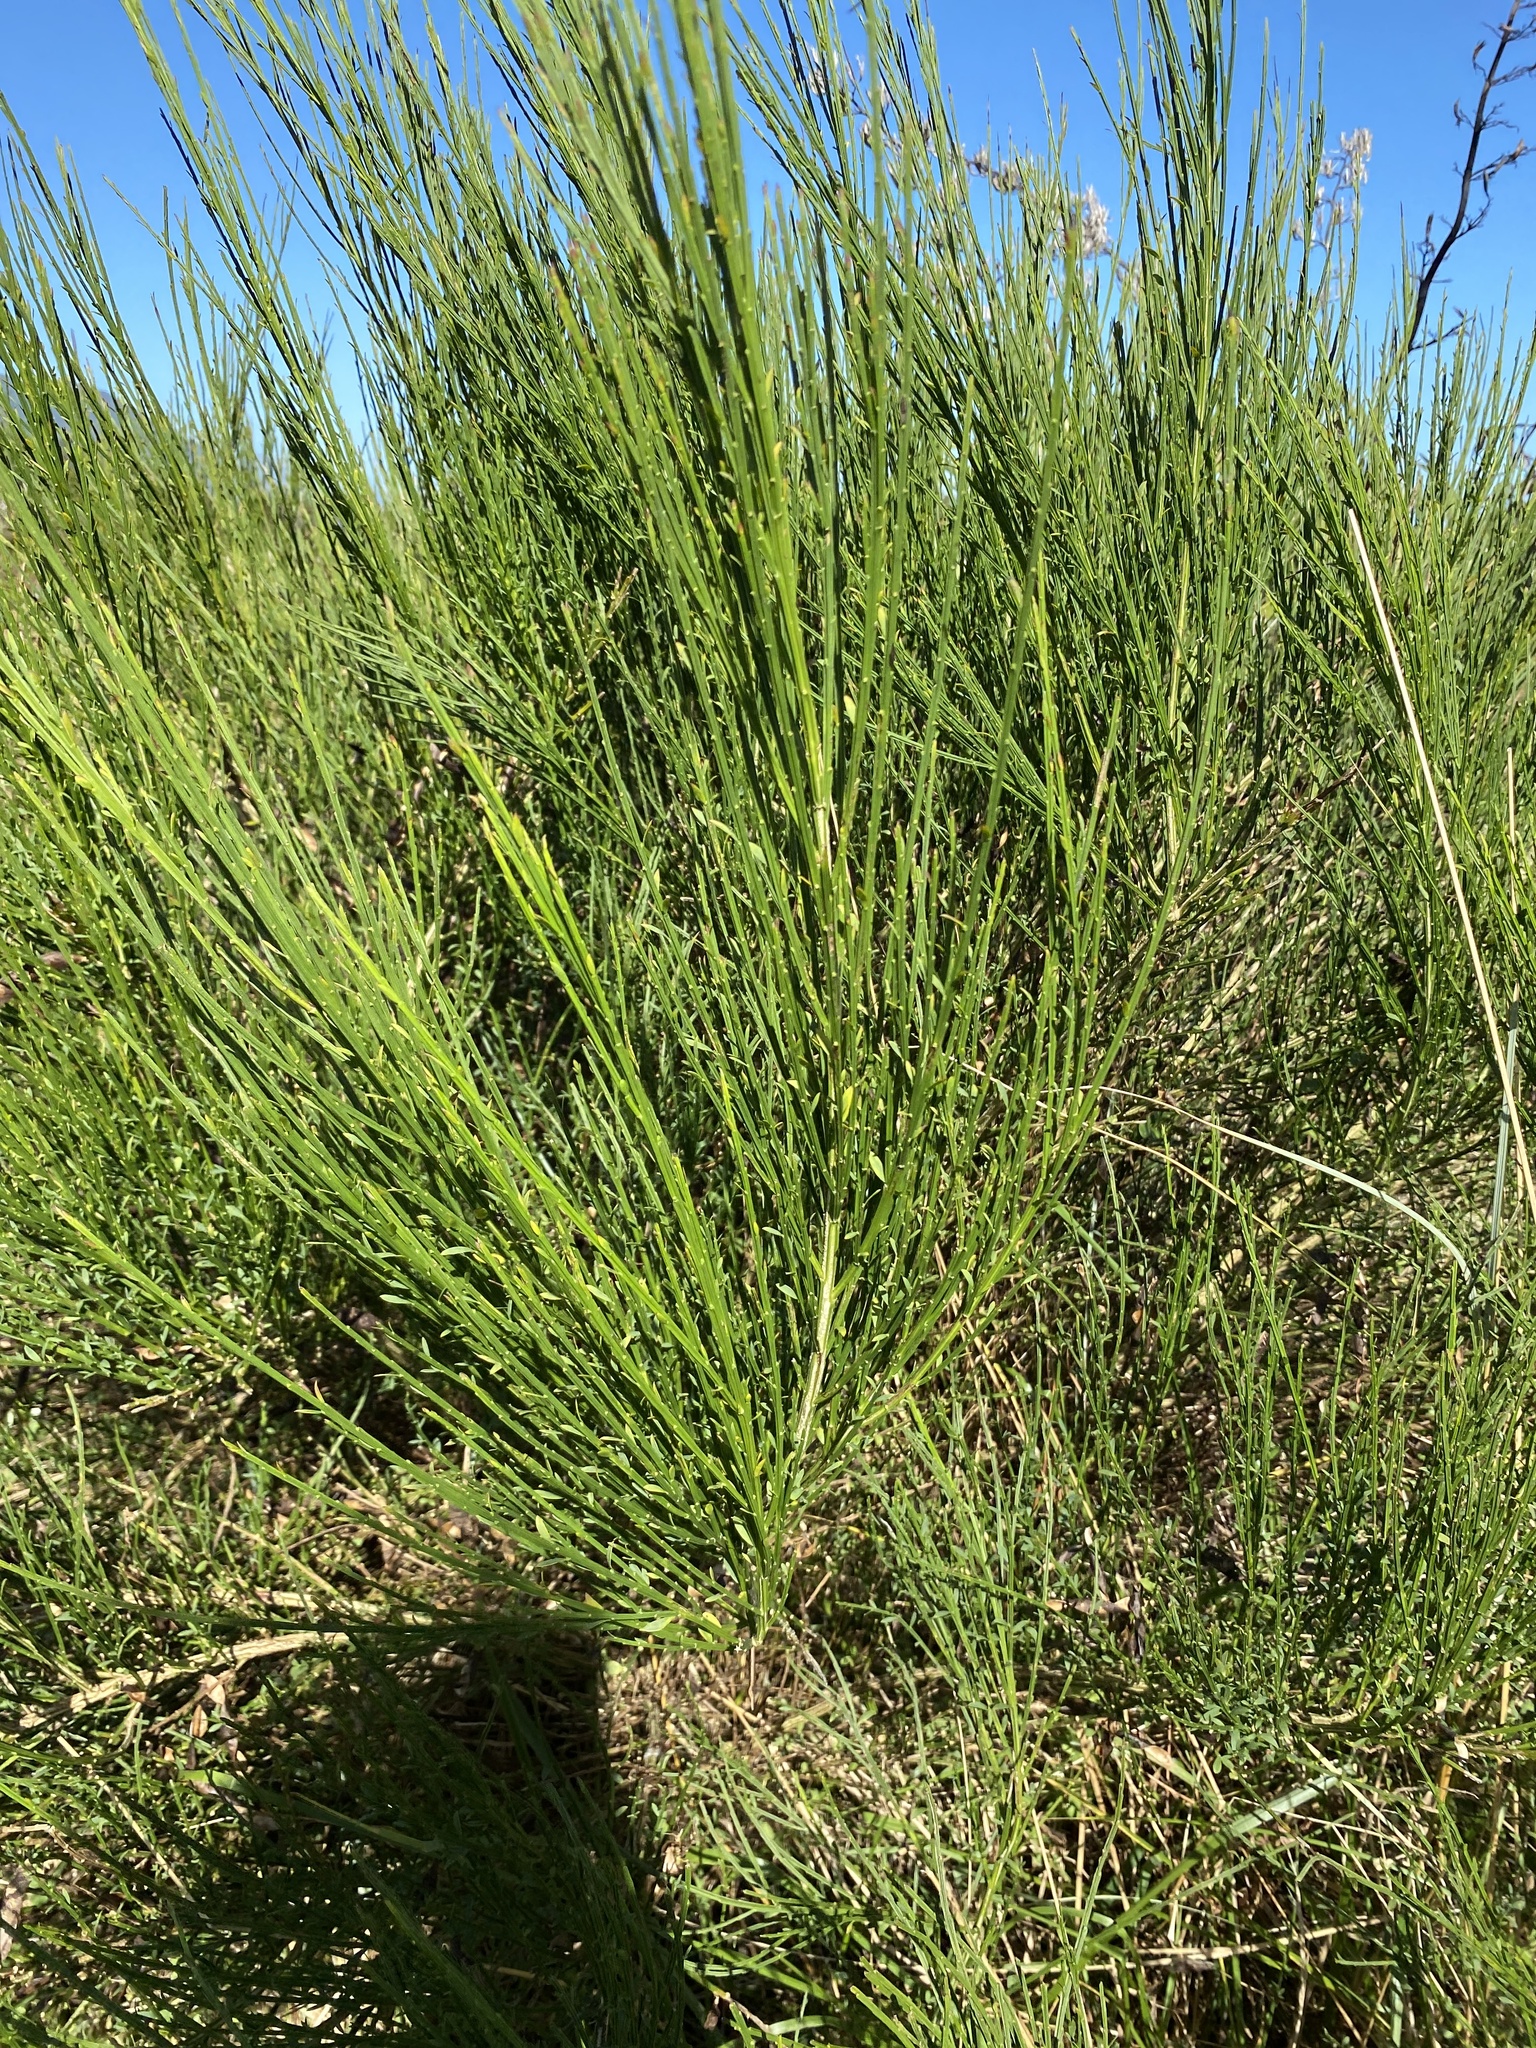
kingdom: Plantae
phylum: Tracheophyta
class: Magnoliopsida
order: Fabales
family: Fabaceae
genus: Cytisus
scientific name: Cytisus scoparius
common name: Scotch broom
